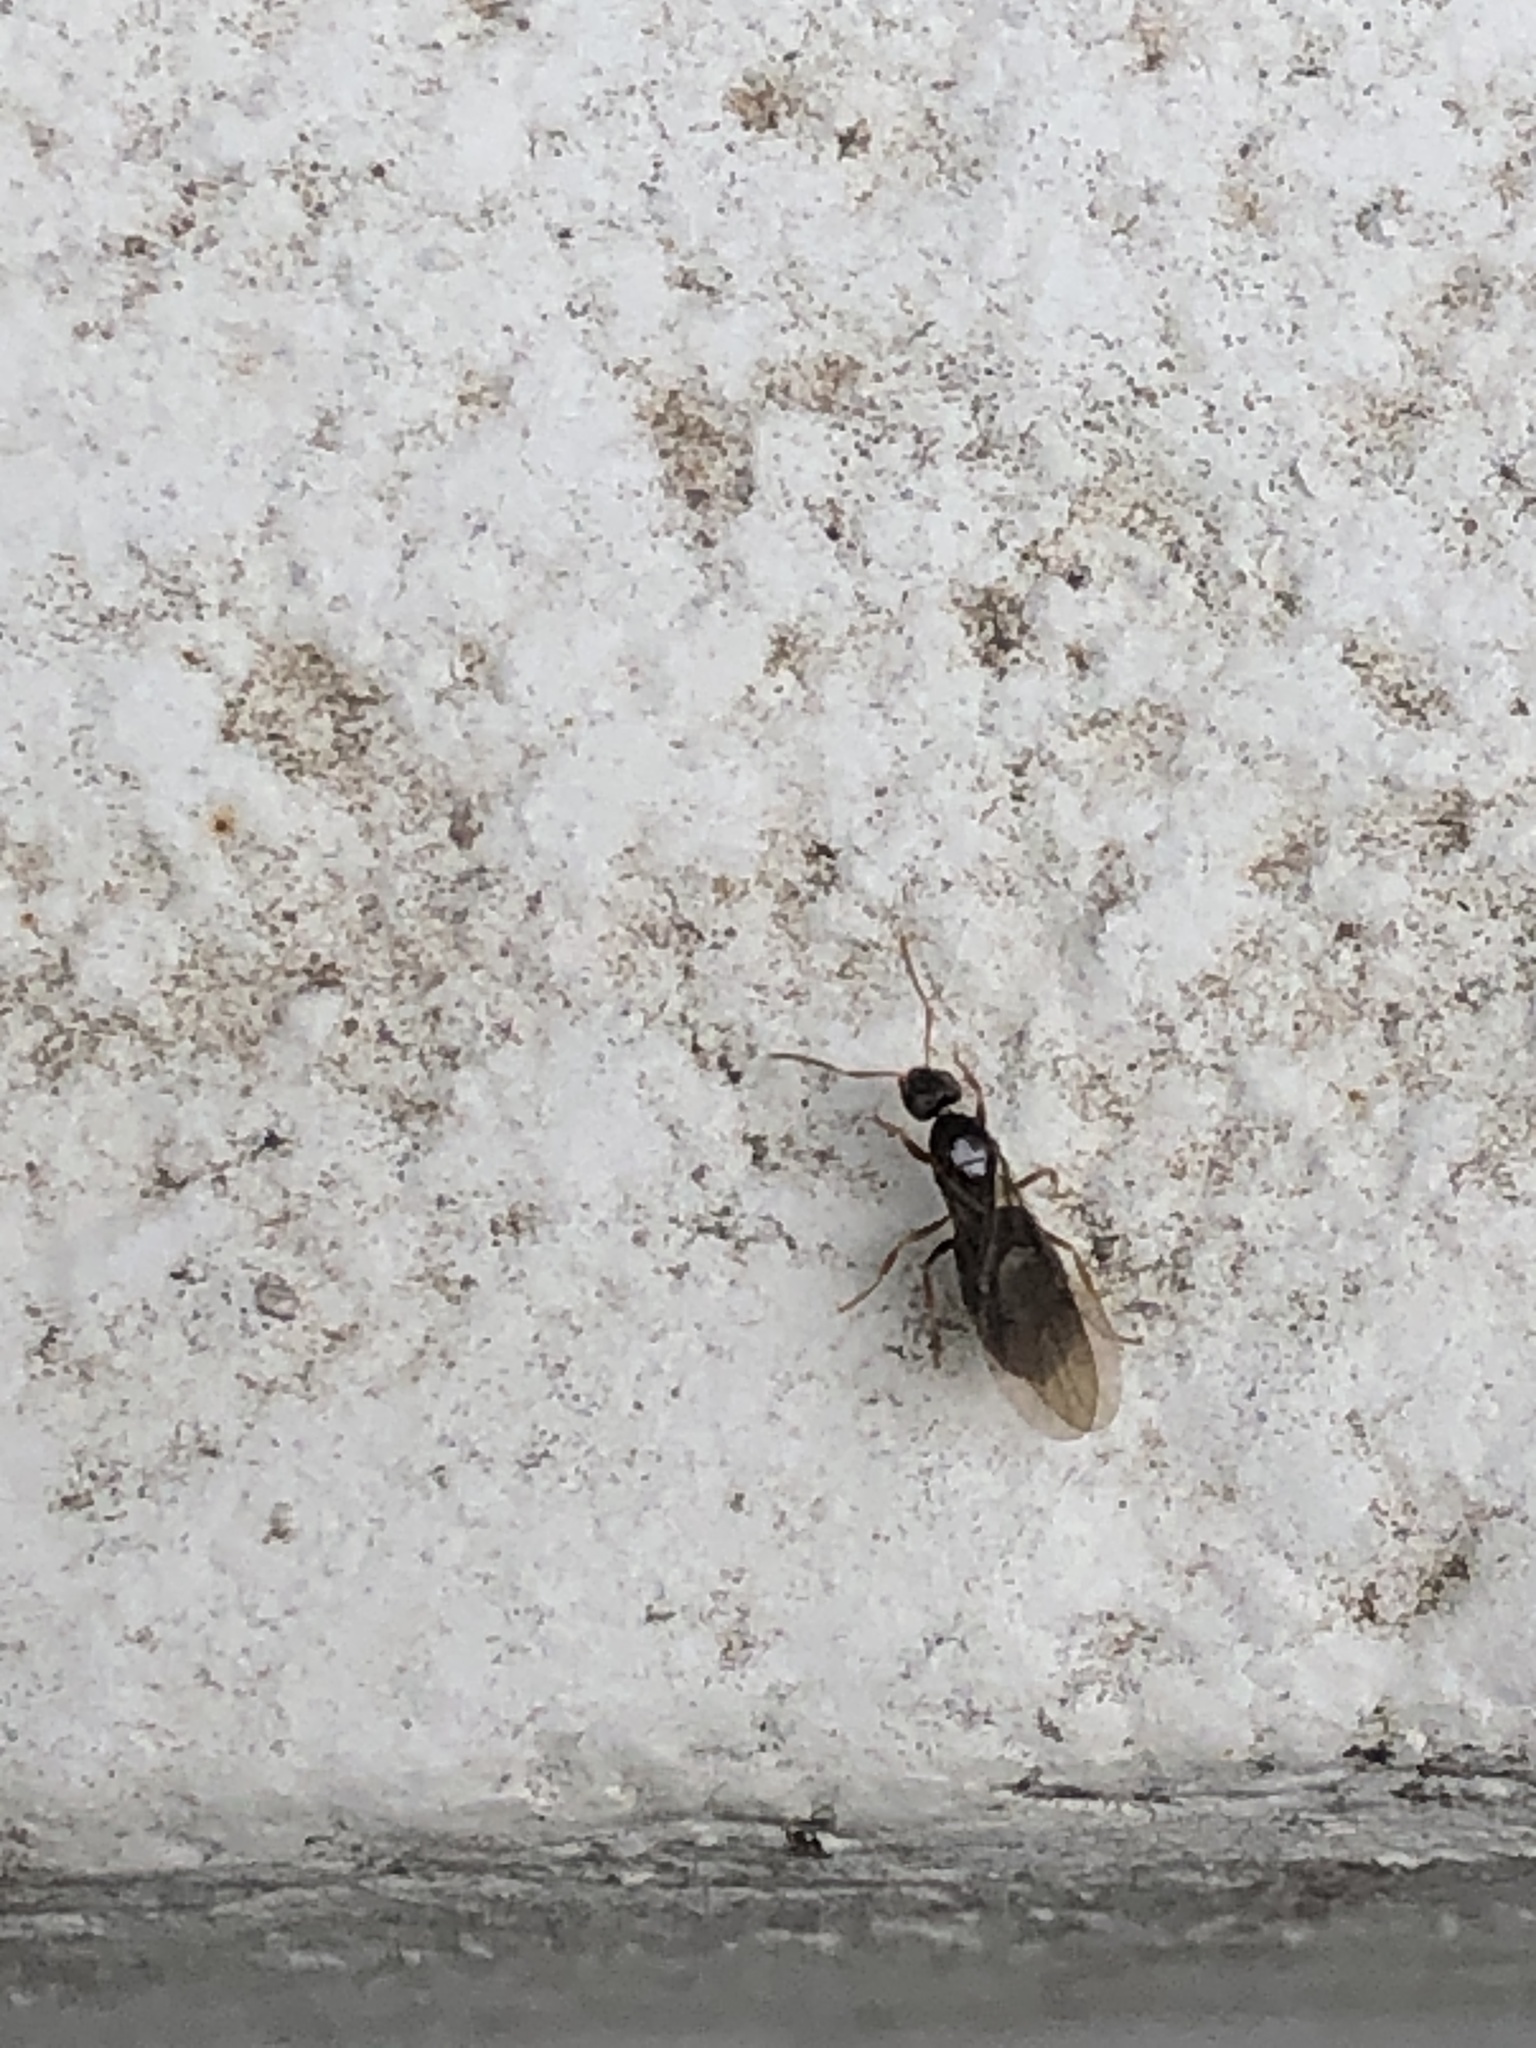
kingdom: Animalia
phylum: Arthropoda
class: Insecta
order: Hymenoptera
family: Formicidae
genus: Paratrechina
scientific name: Paratrechina flavipes
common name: Eastern asian formicine ant
